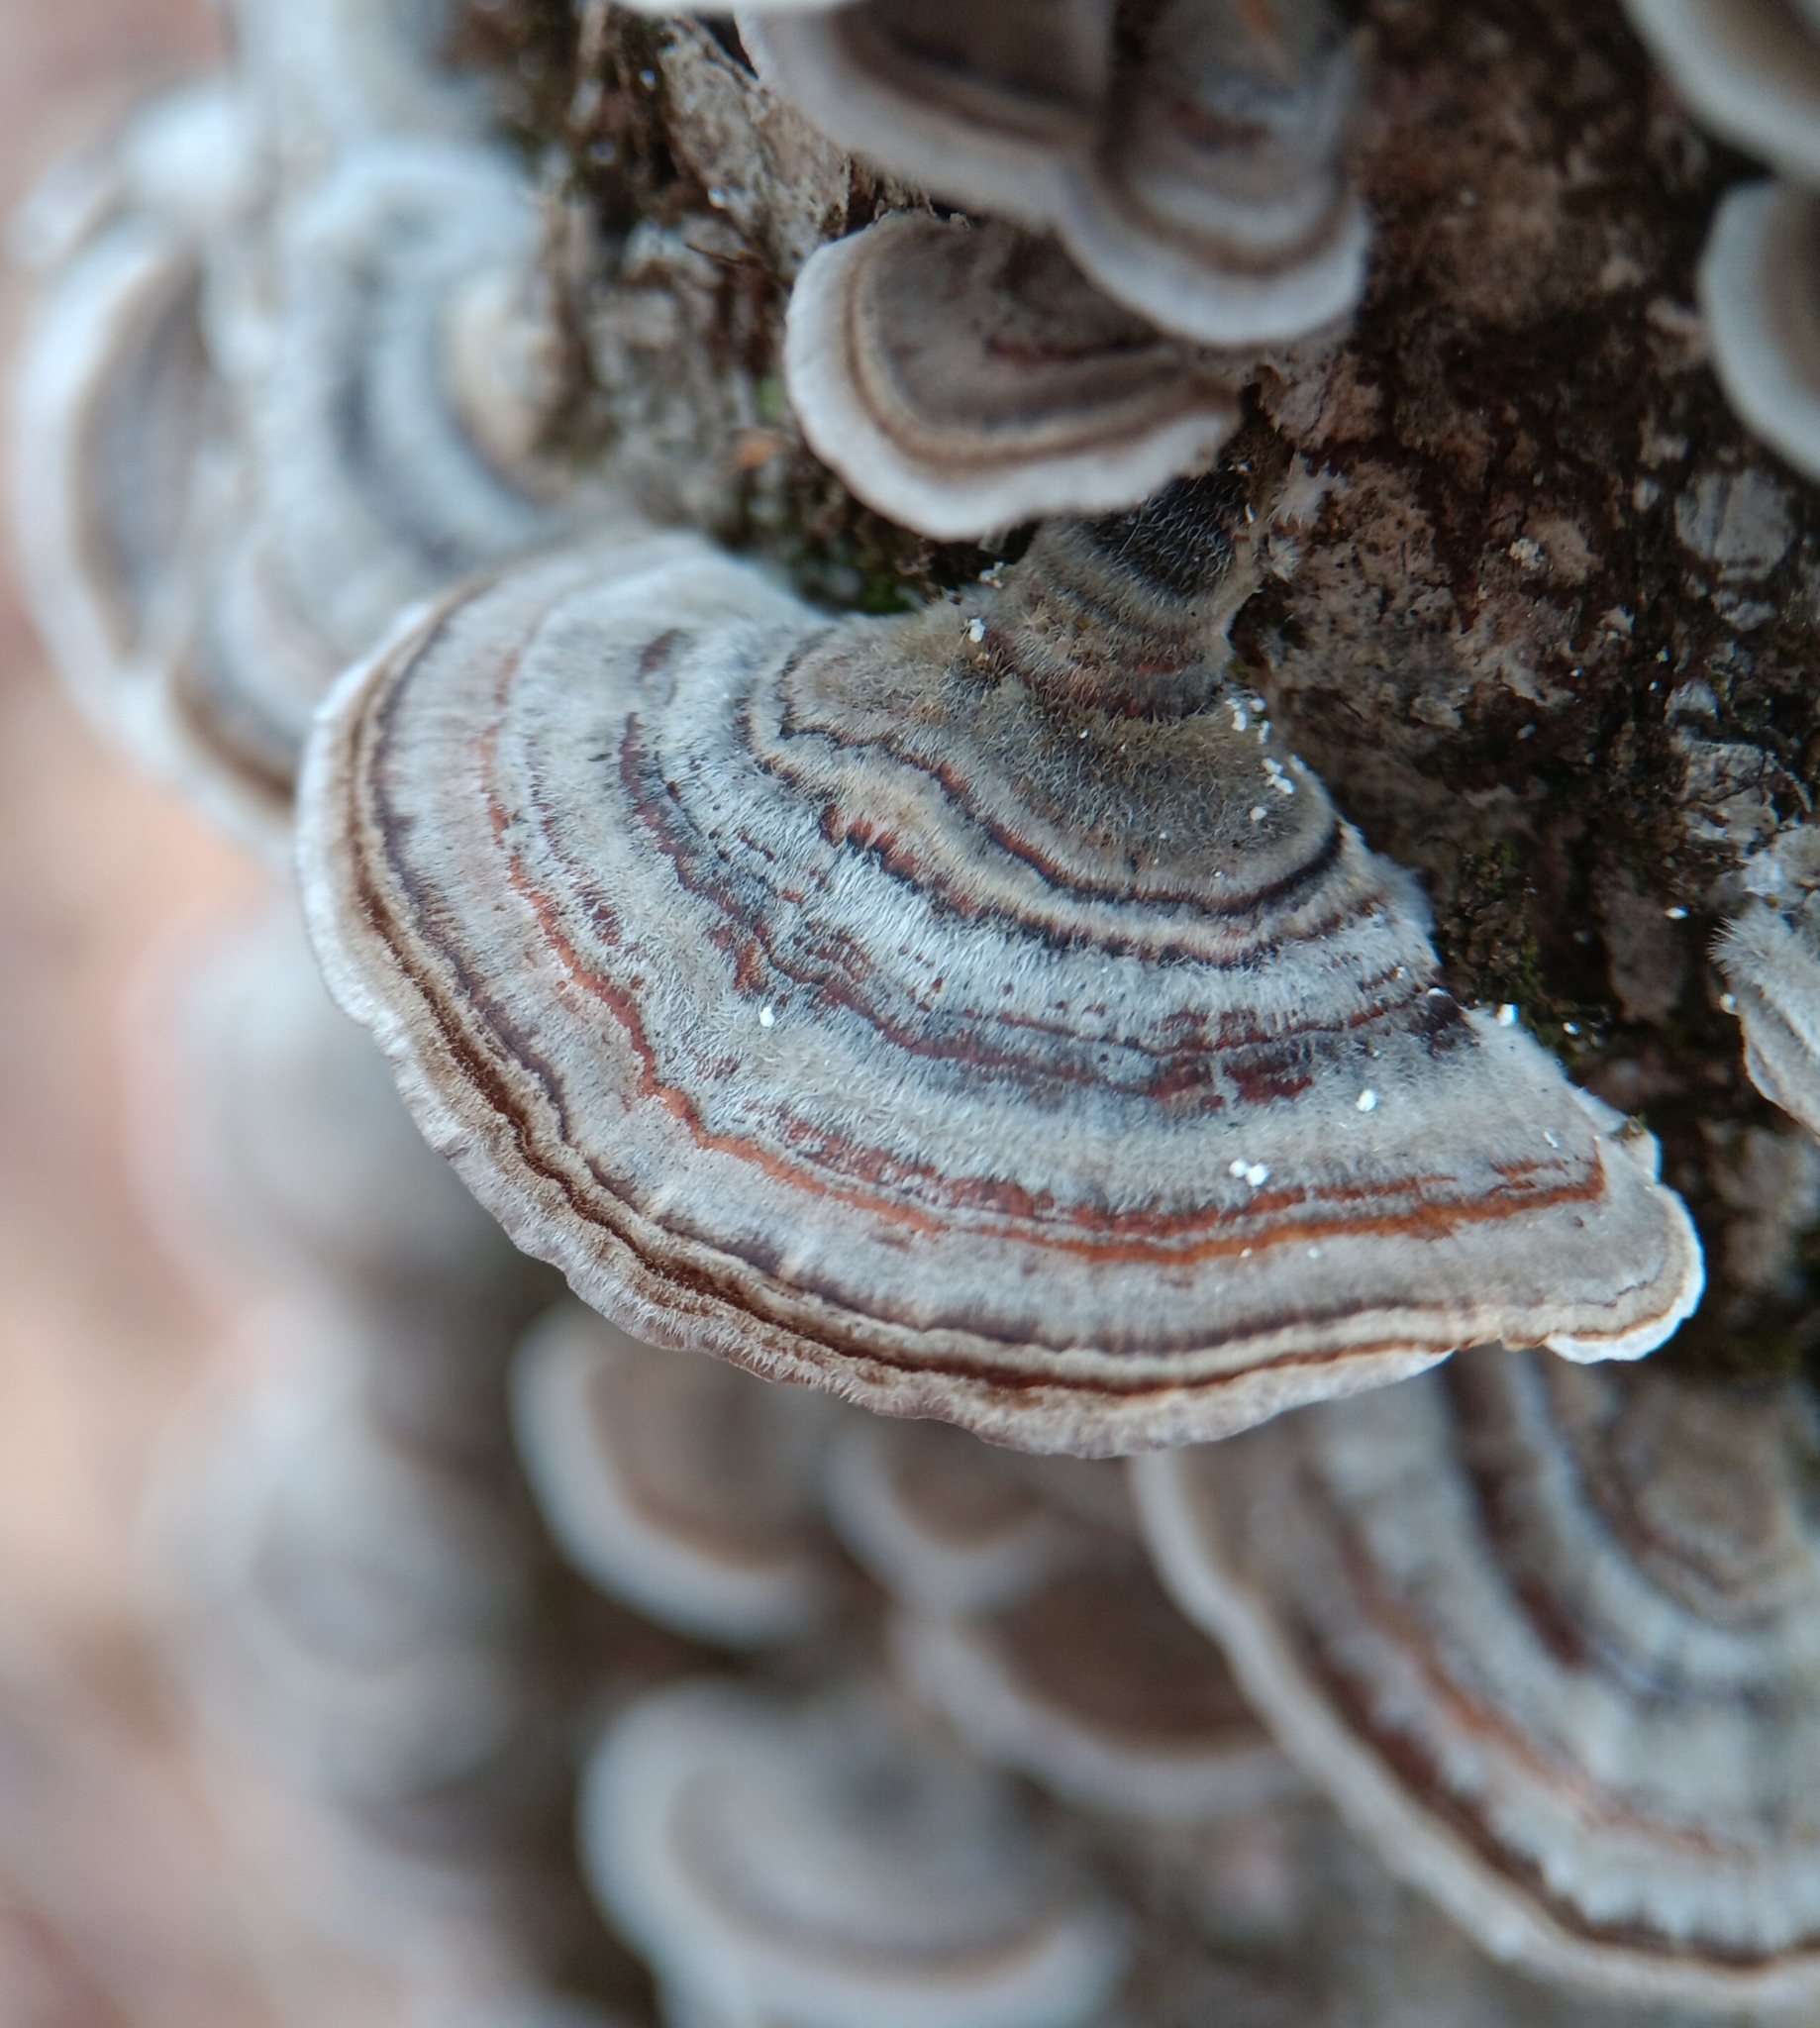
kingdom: Fungi
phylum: Basidiomycota
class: Agaricomycetes
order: Polyporales
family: Polyporaceae
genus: Trametes
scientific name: Trametes versicolor
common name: Turkeytail
